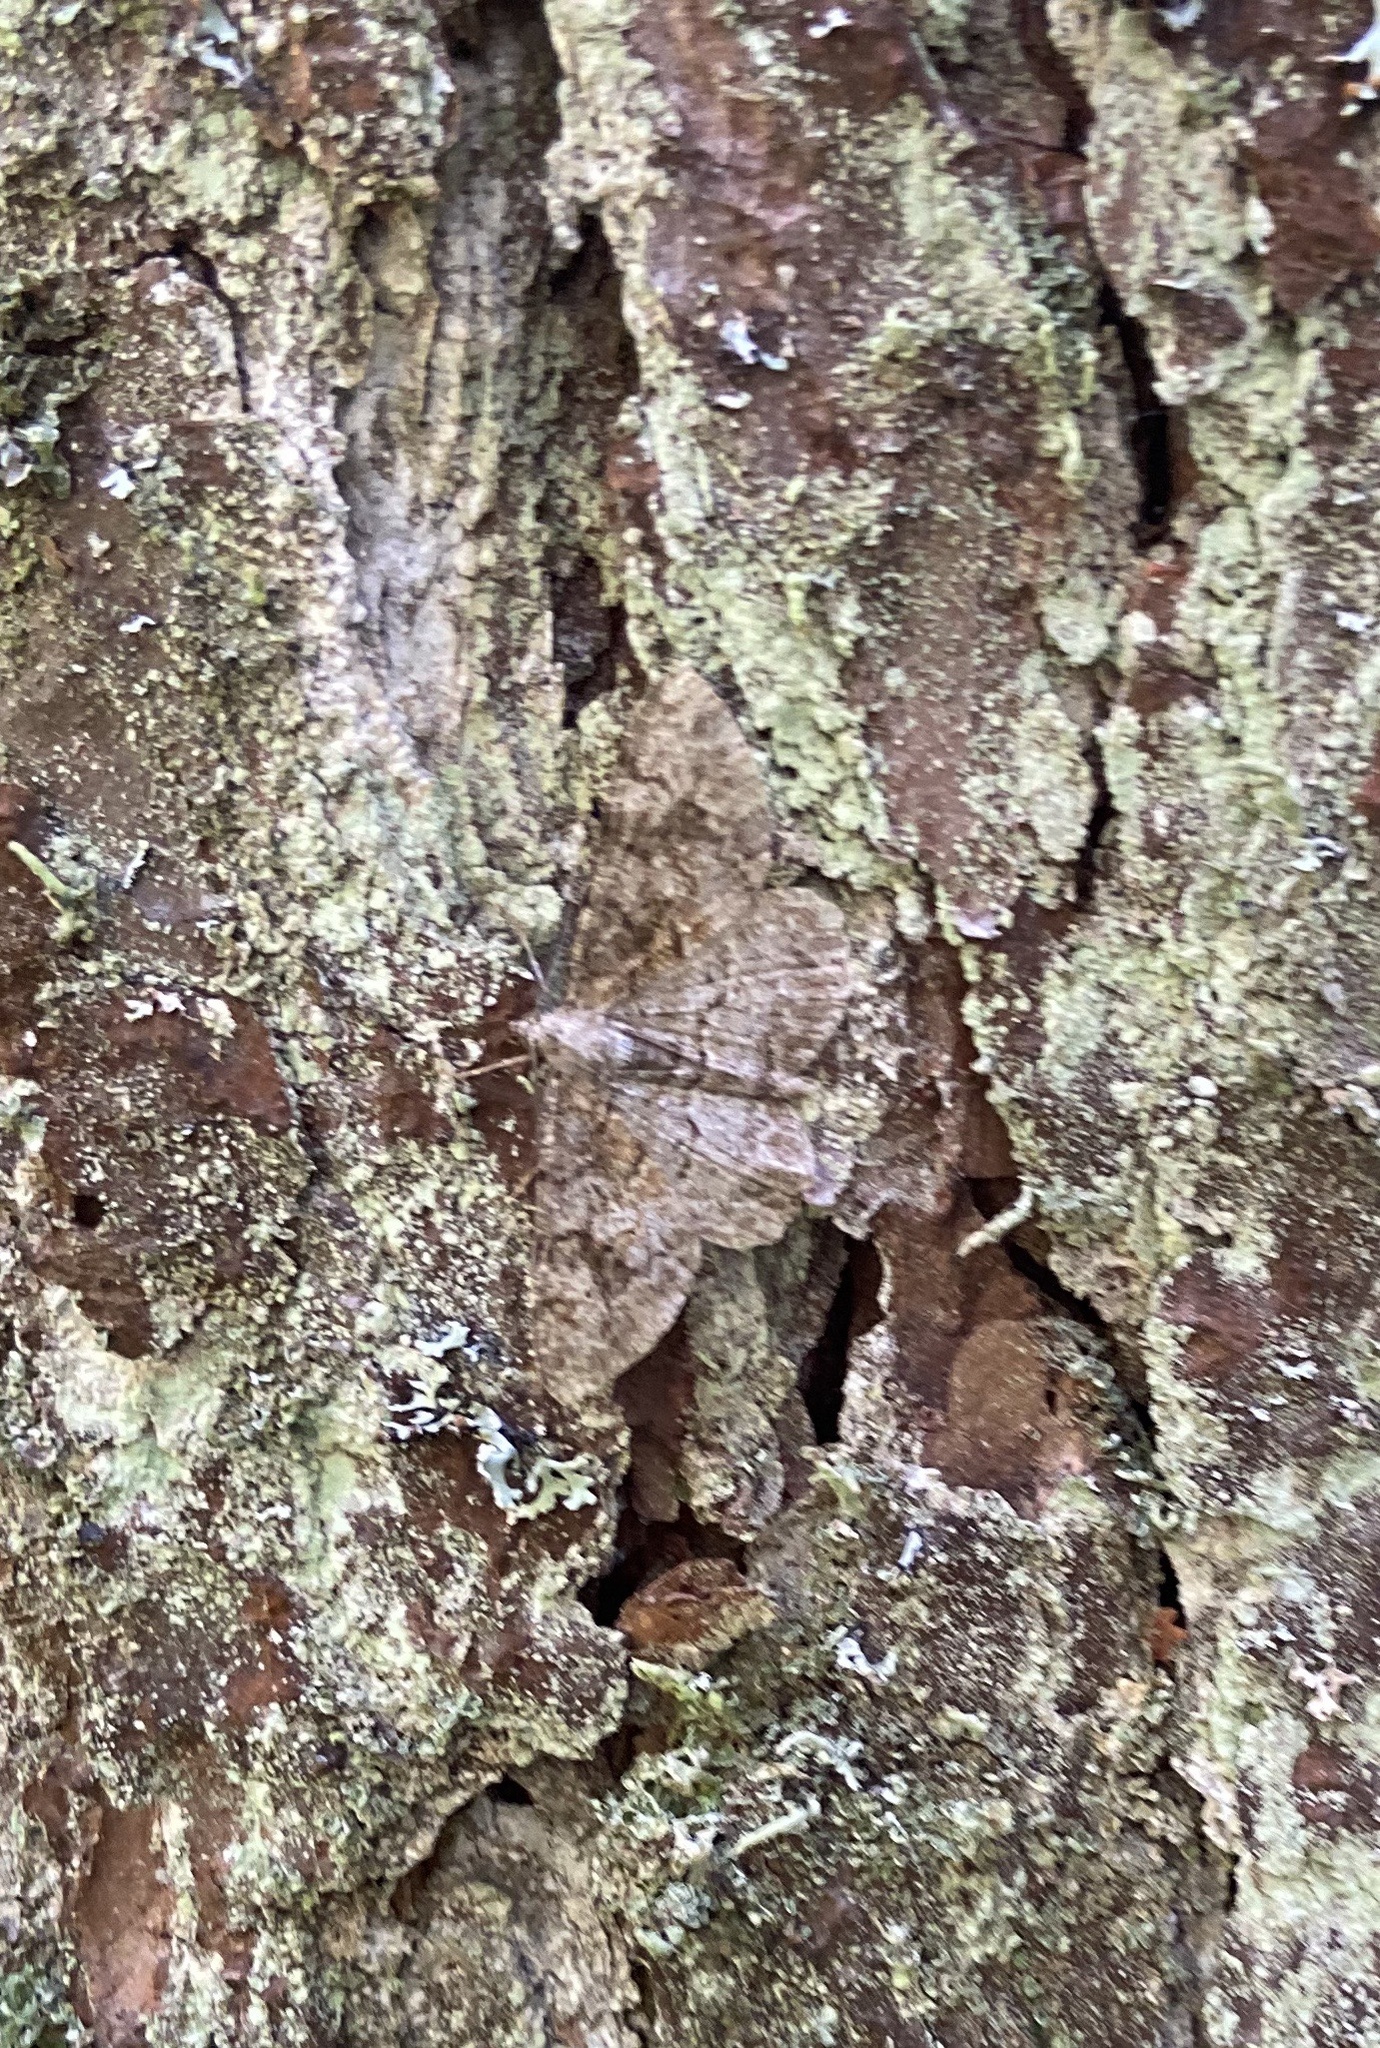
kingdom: Animalia
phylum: Arthropoda
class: Insecta
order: Lepidoptera
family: Geometridae
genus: Alcis
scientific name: Alcis repandata
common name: Mottled beauty
